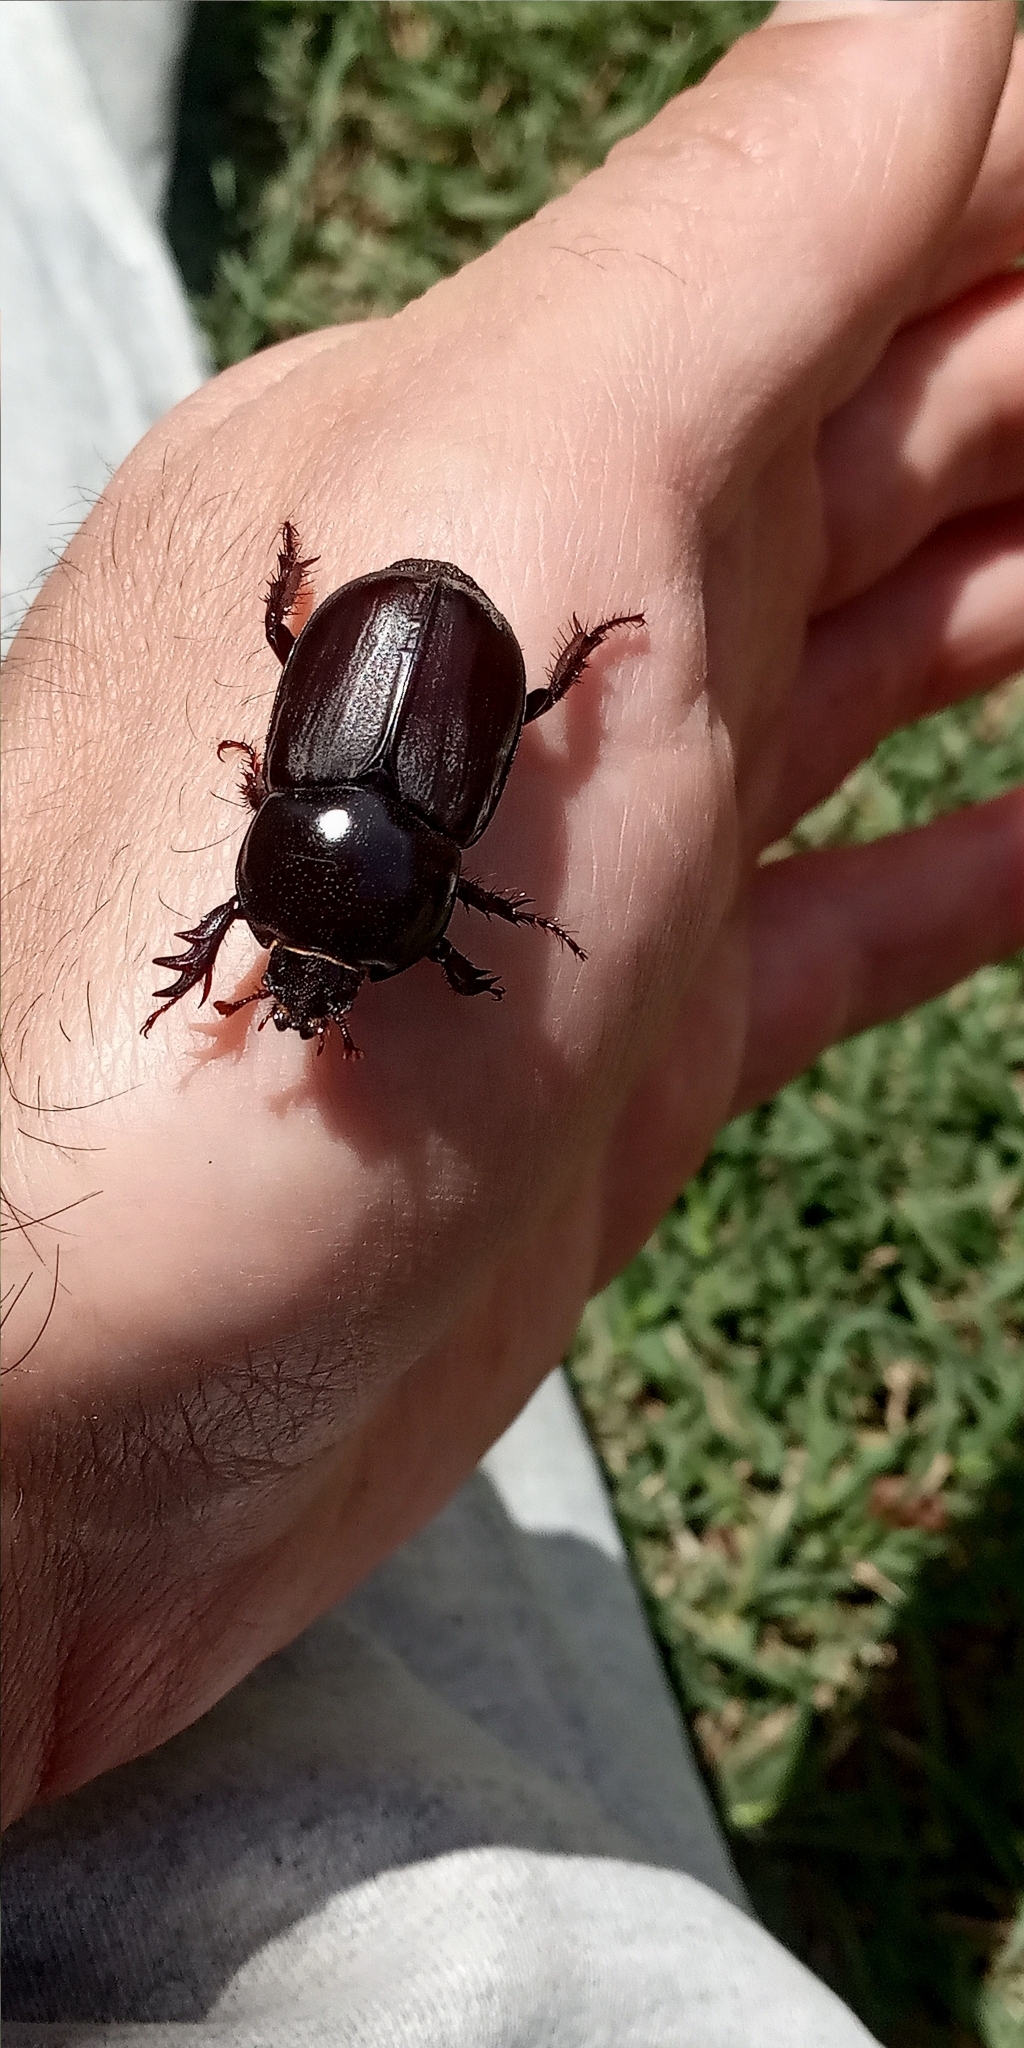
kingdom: Animalia
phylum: Arthropoda
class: Insecta
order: Coleoptera
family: Scarabaeidae
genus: Diloboderus
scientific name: Diloboderus abderus
